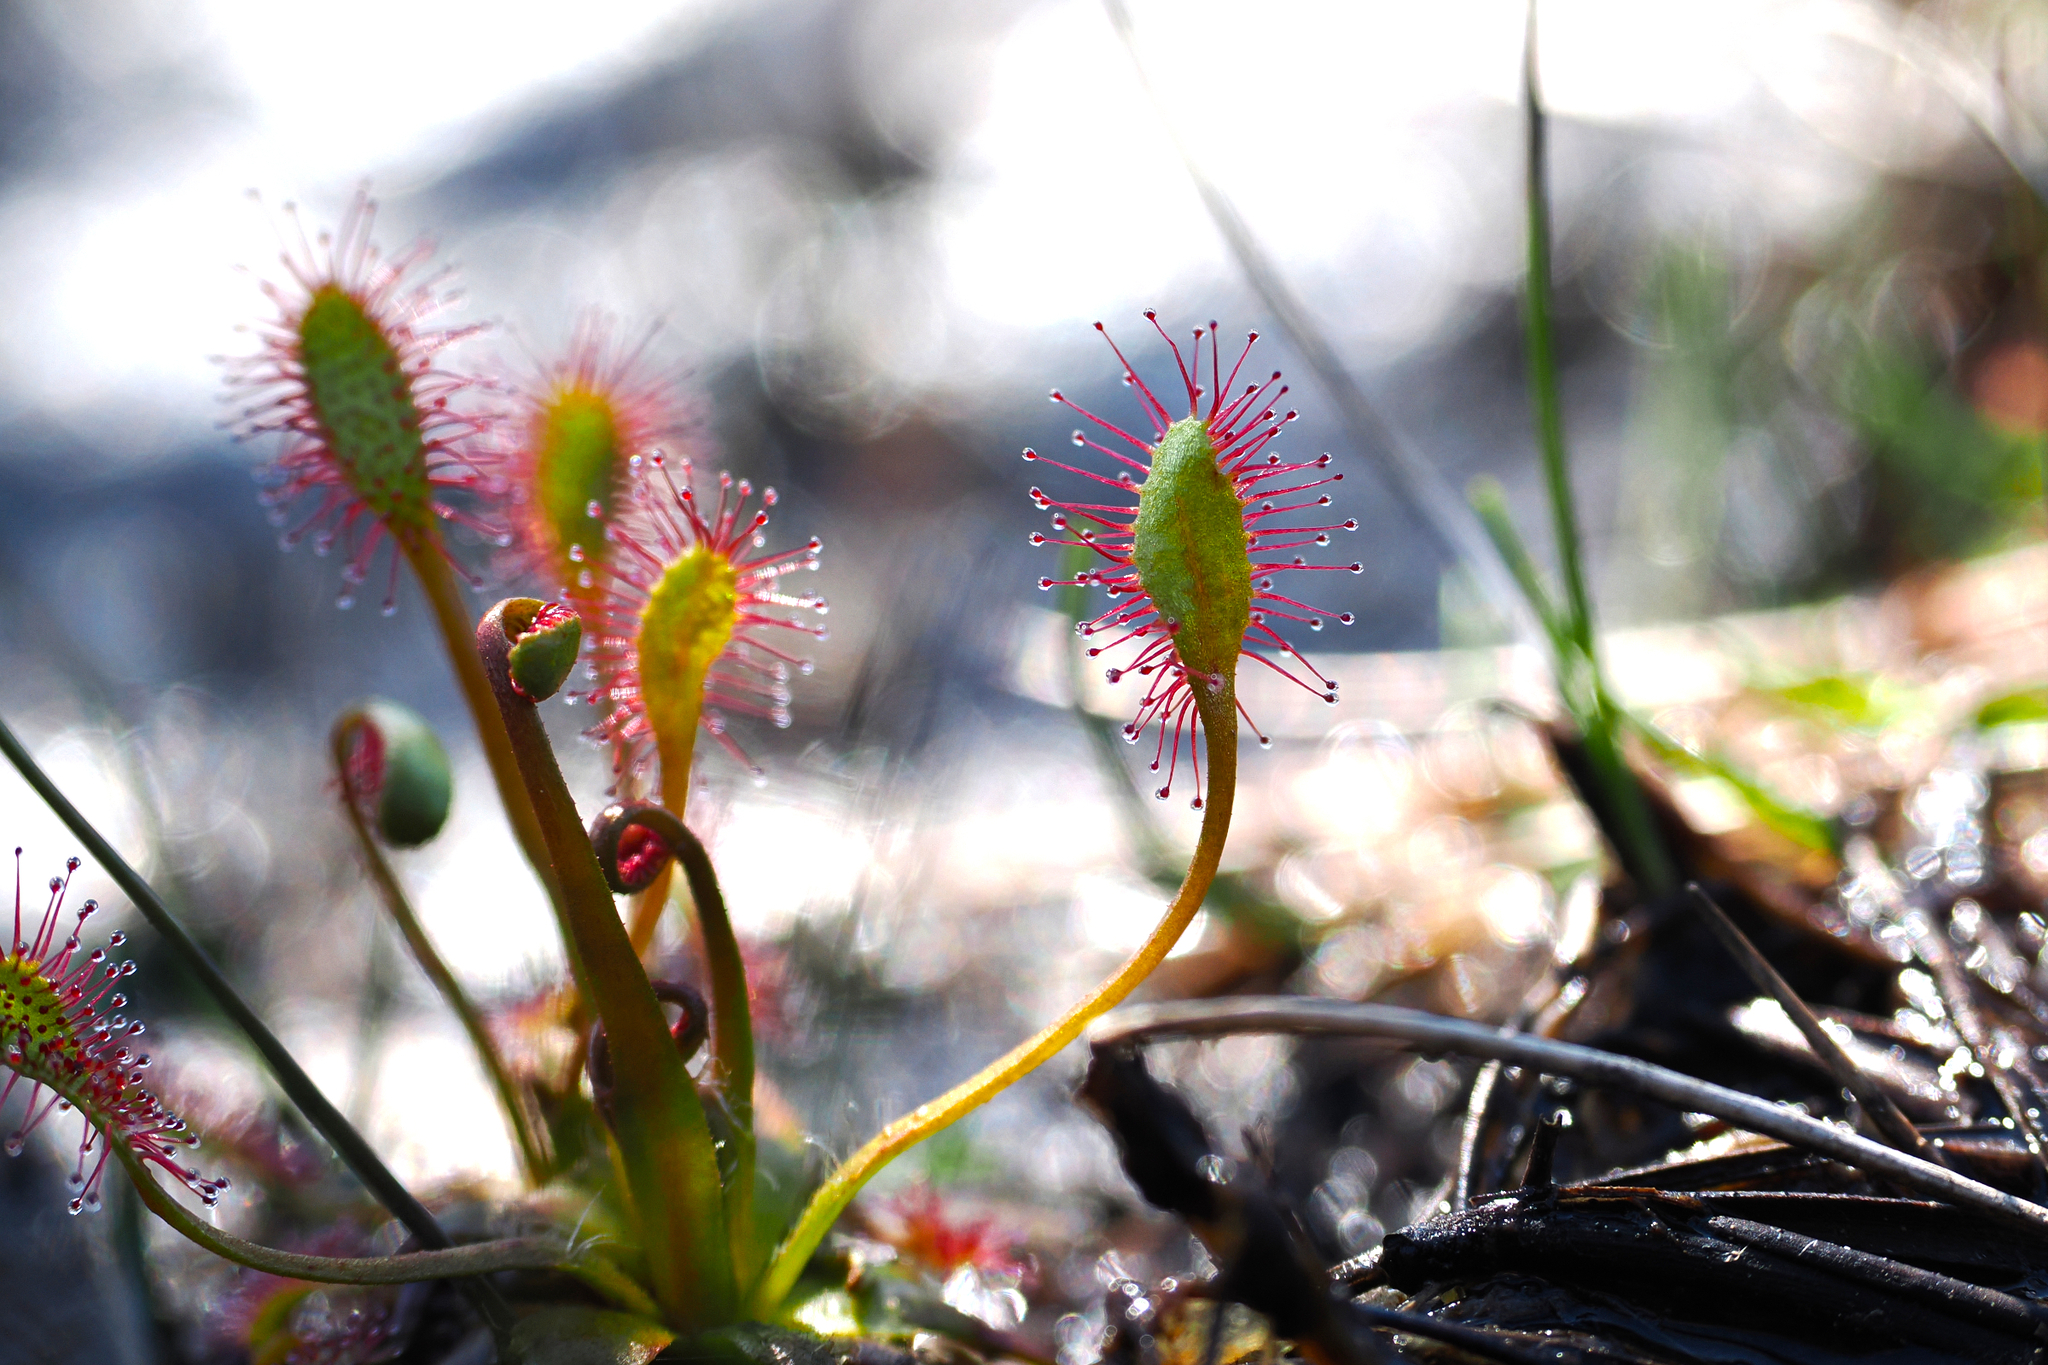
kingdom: Plantae
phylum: Tracheophyta
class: Magnoliopsida
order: Caryophyllales
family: Droseraceae
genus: Drosera
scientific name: Drosera anglica
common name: Great sundew
